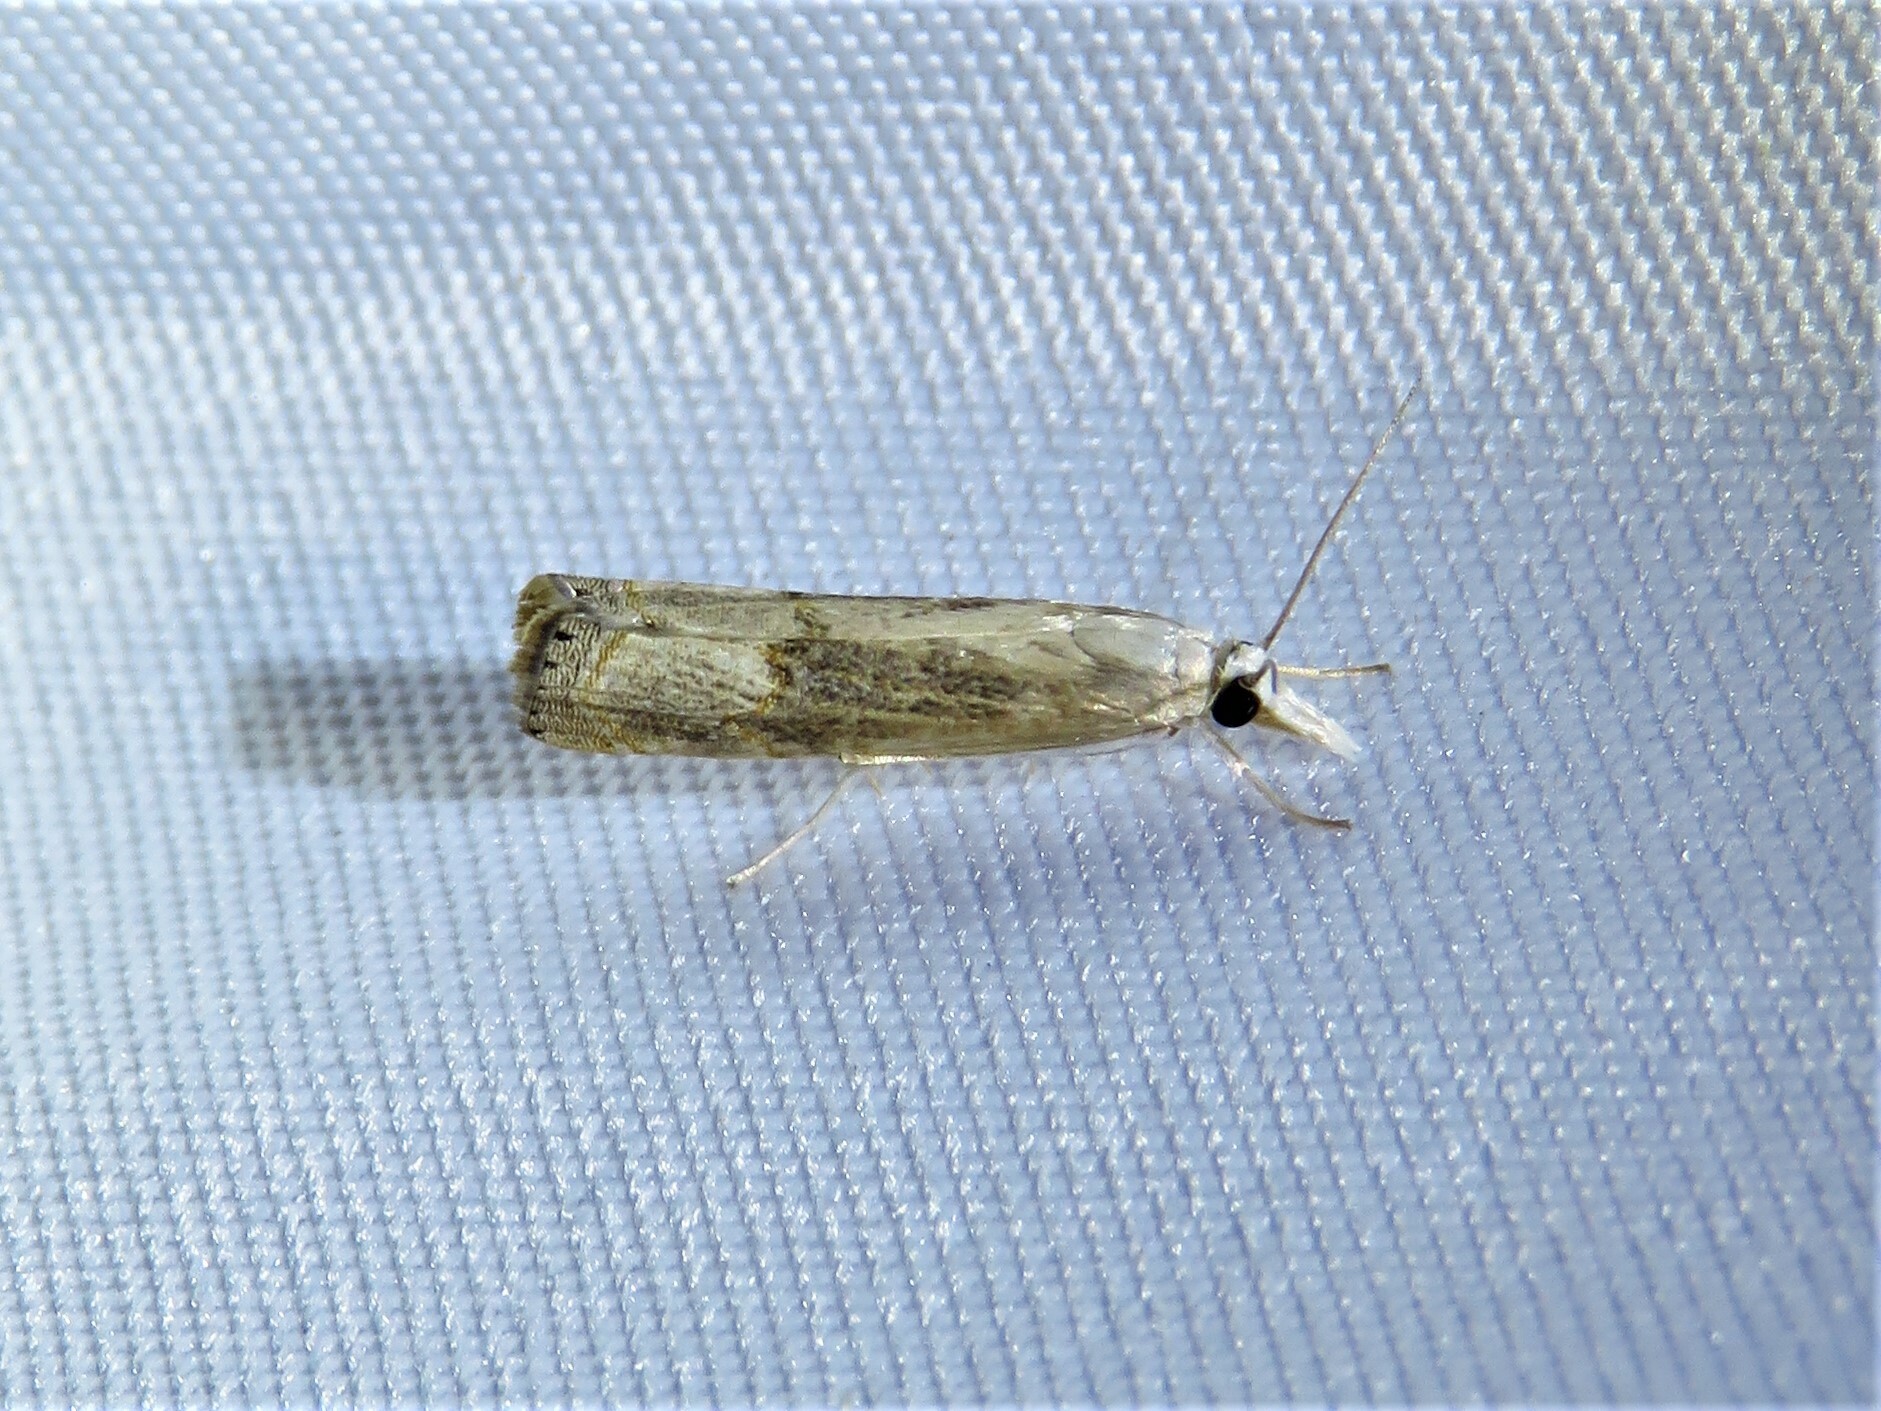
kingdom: Animalia
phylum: Arthropoda
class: Insecta
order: Lepidoptera
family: Crambidae
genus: Parapediasia
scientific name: Parapediasia teterellus
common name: Bluegrass webworm moth
